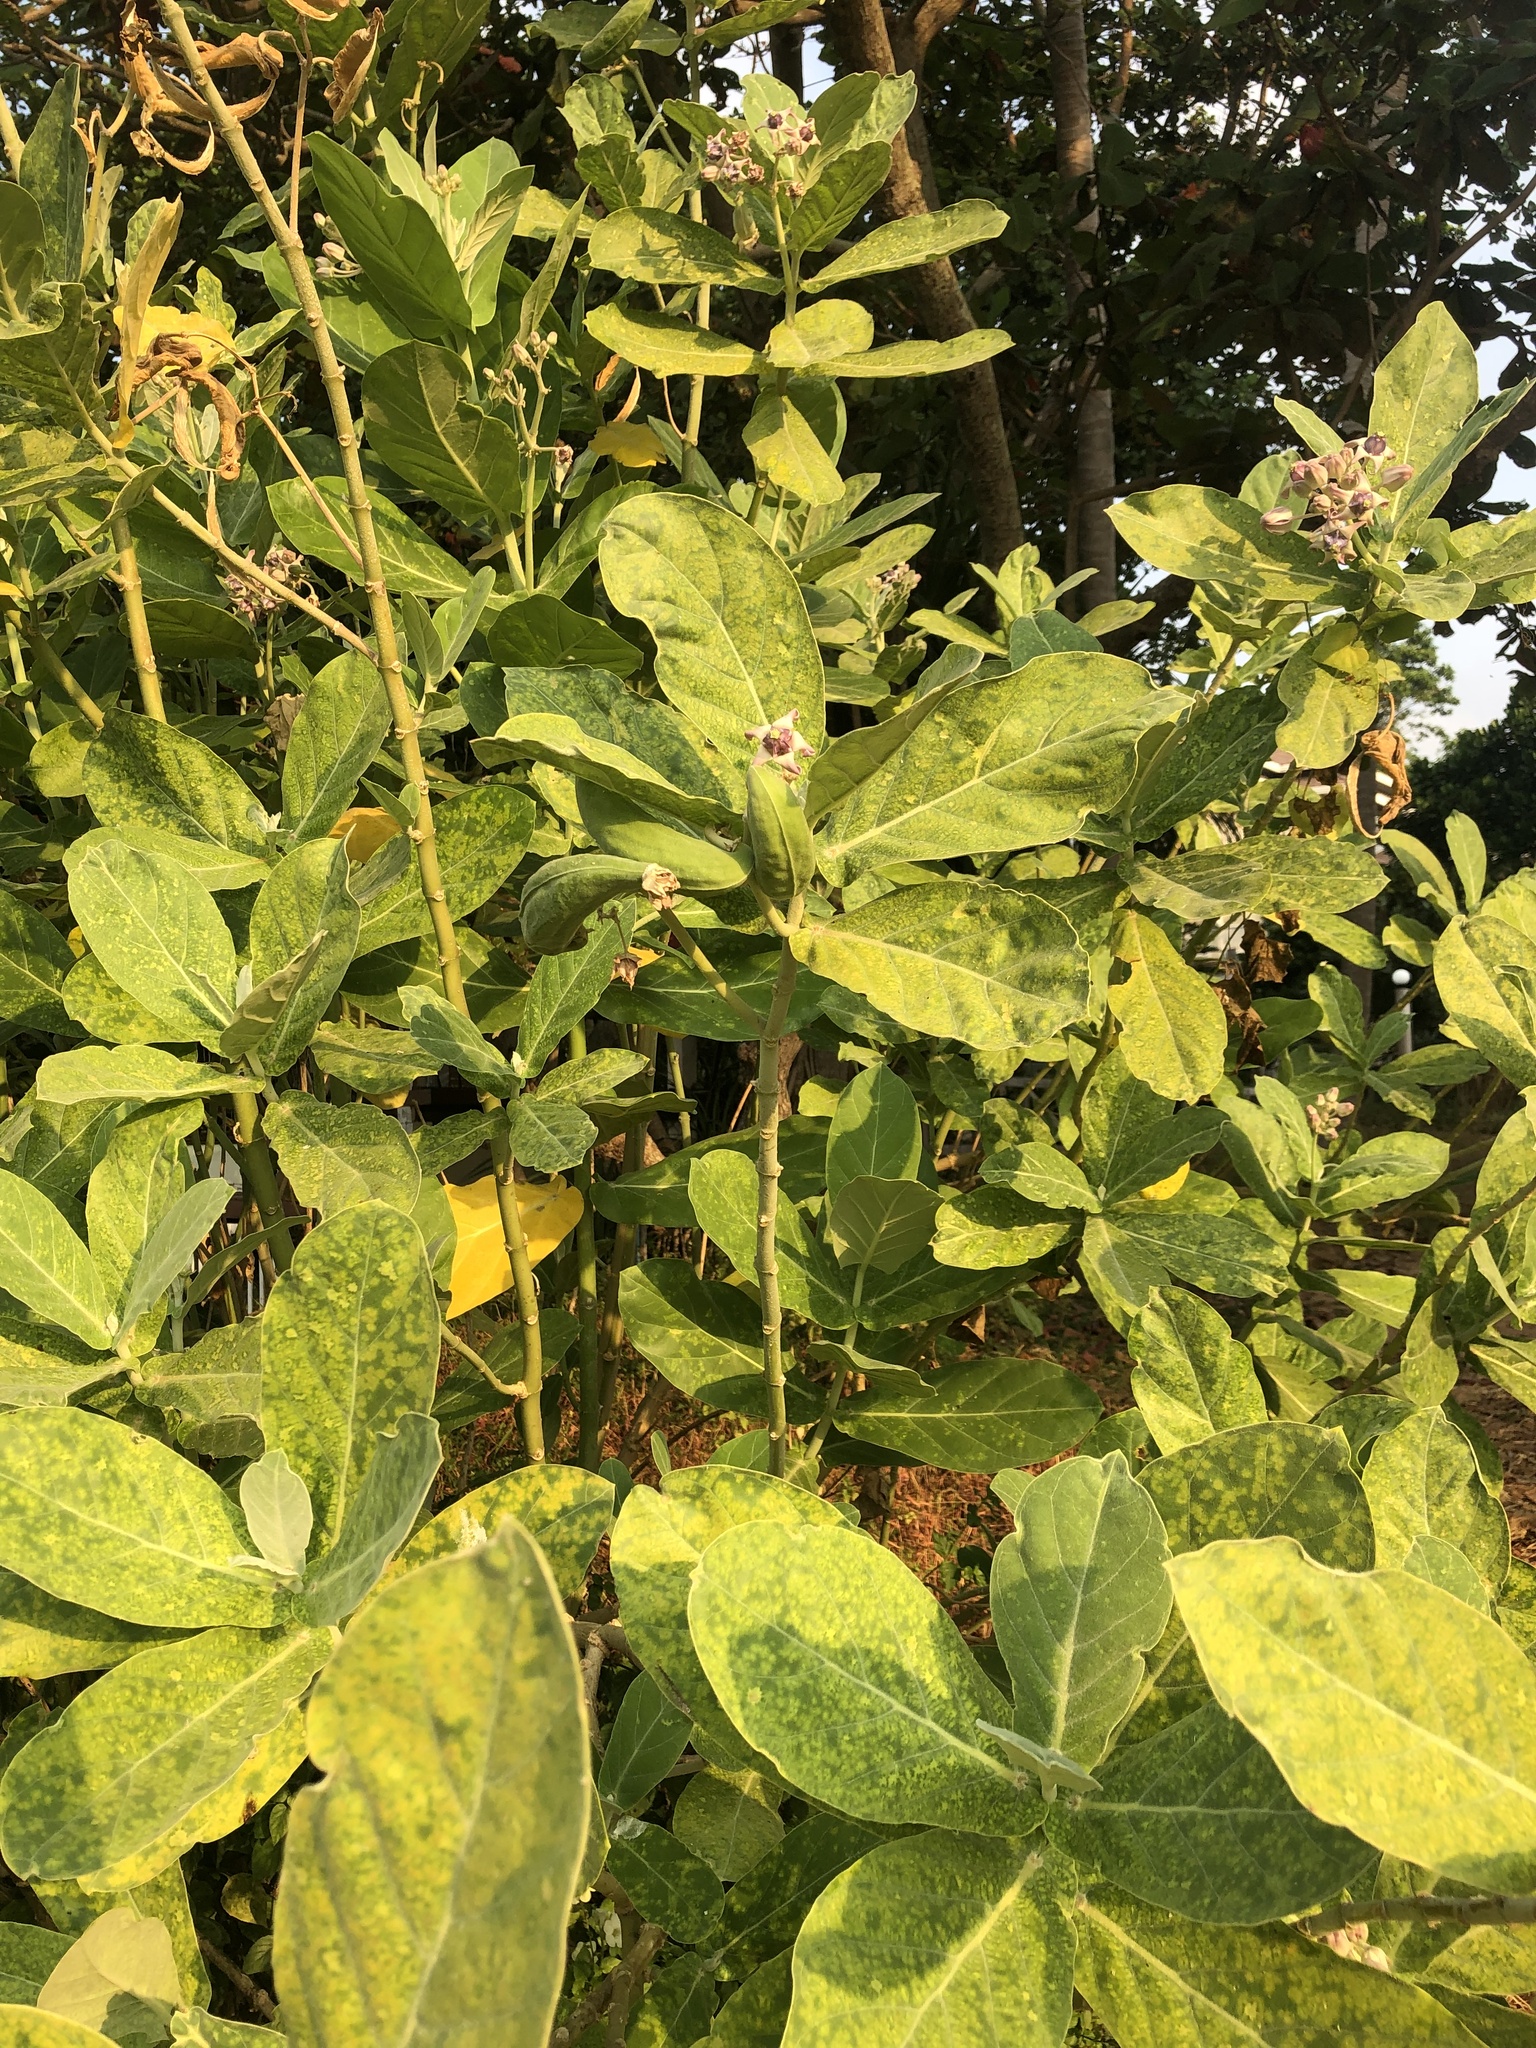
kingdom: Plantae
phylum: Tracheophyta
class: Magnoliopsida
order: Gentianales
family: Apocynaceae
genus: Calotropis
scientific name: Calotropis gigantea
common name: Crown flower
